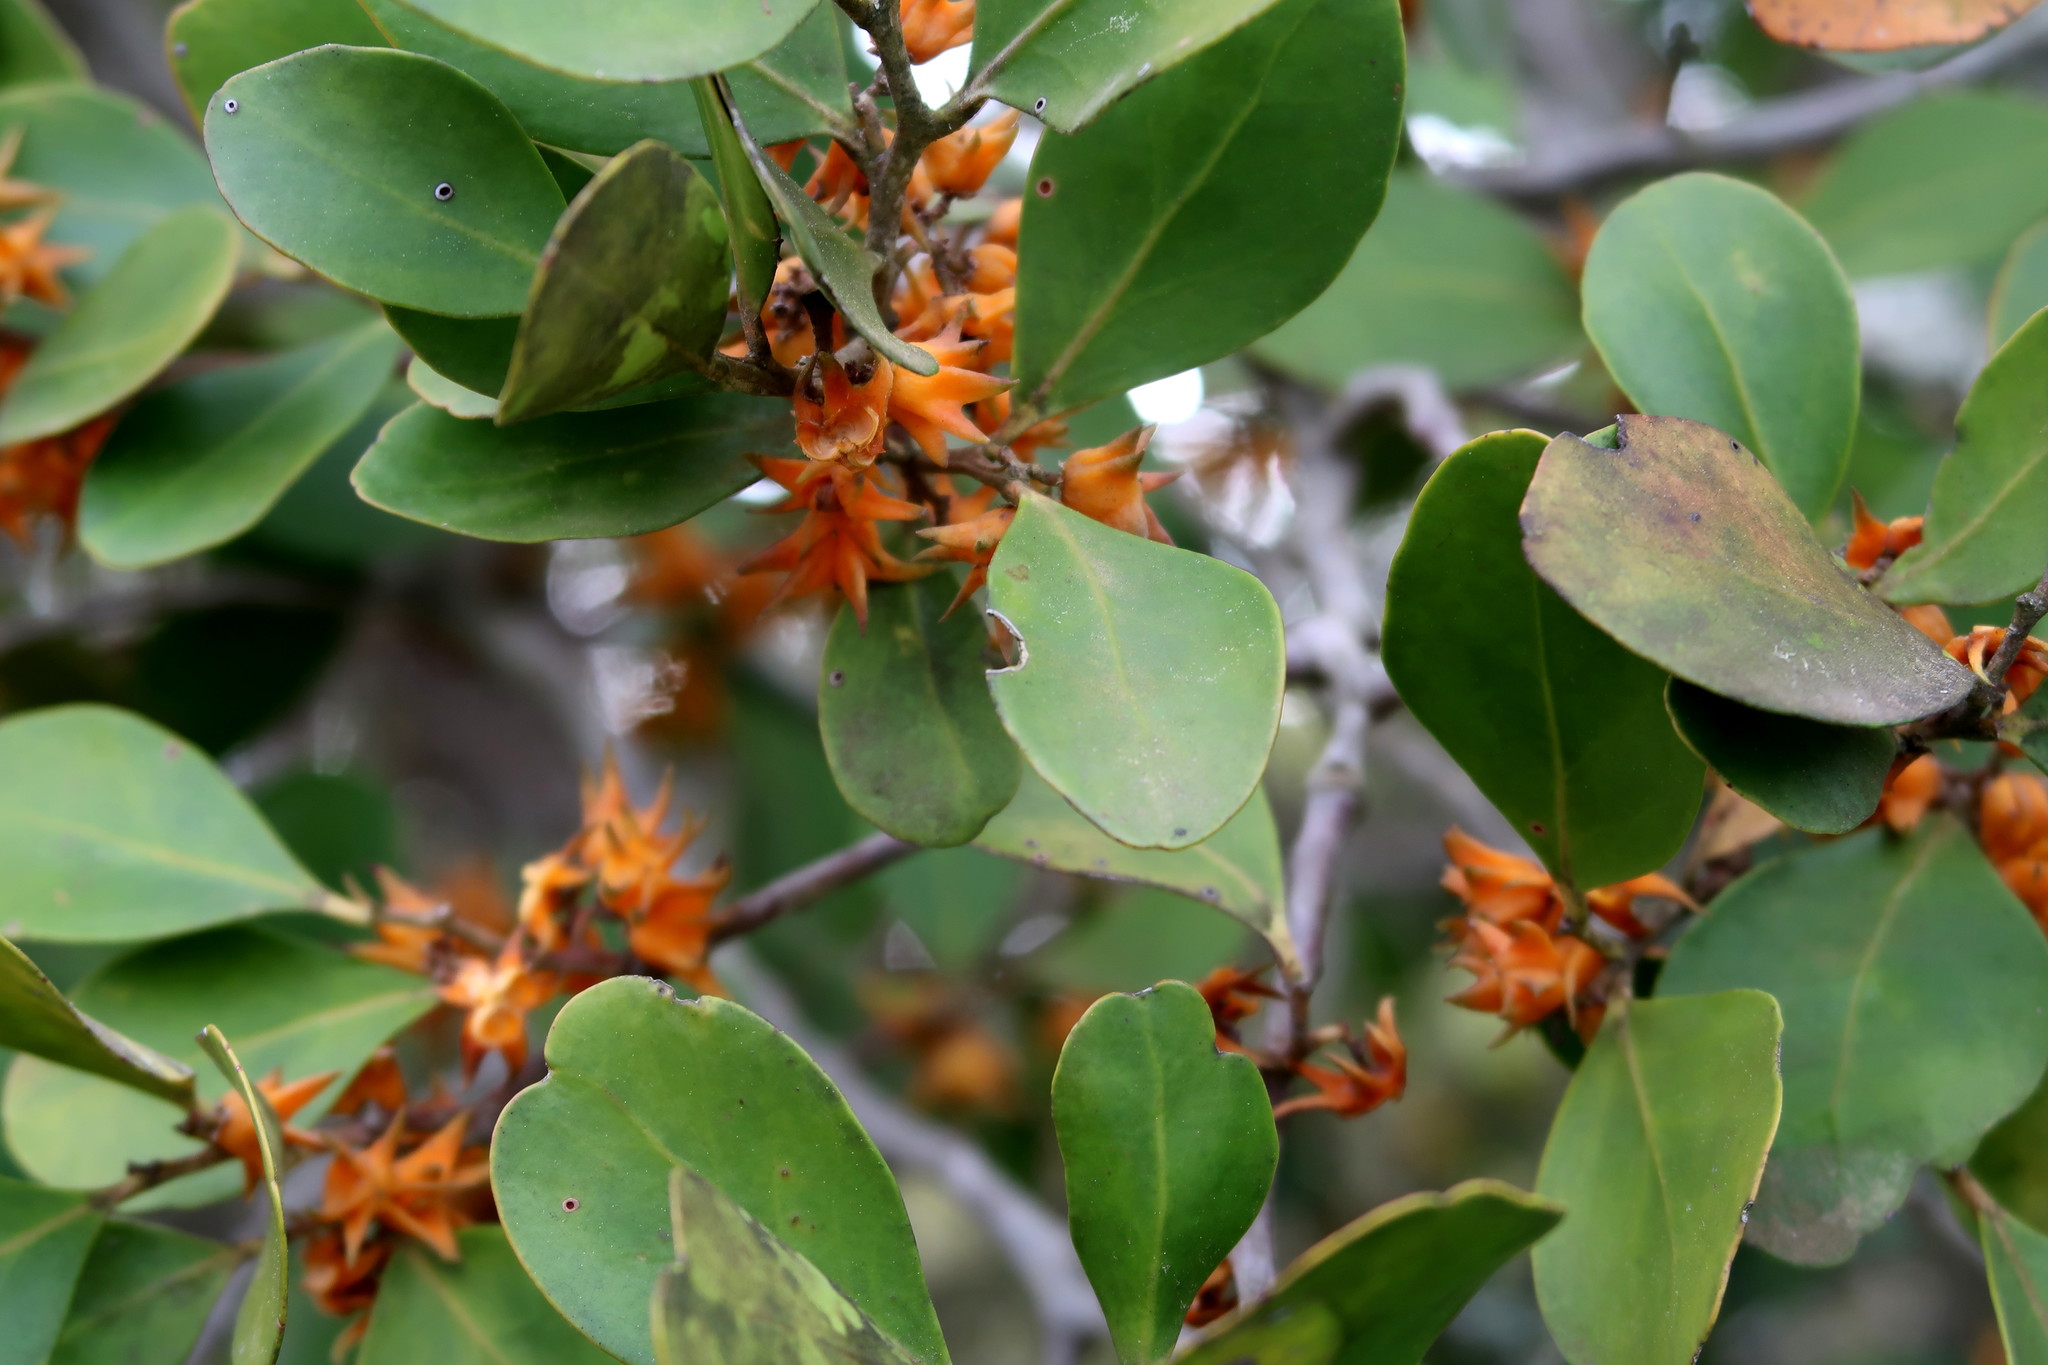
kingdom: Plantae
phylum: Tracheophyta
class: Magnoliopsida
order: Celastrales
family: Celastraceae
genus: Pterocelastrus
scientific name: Pterocelastrus tricuspidatus
